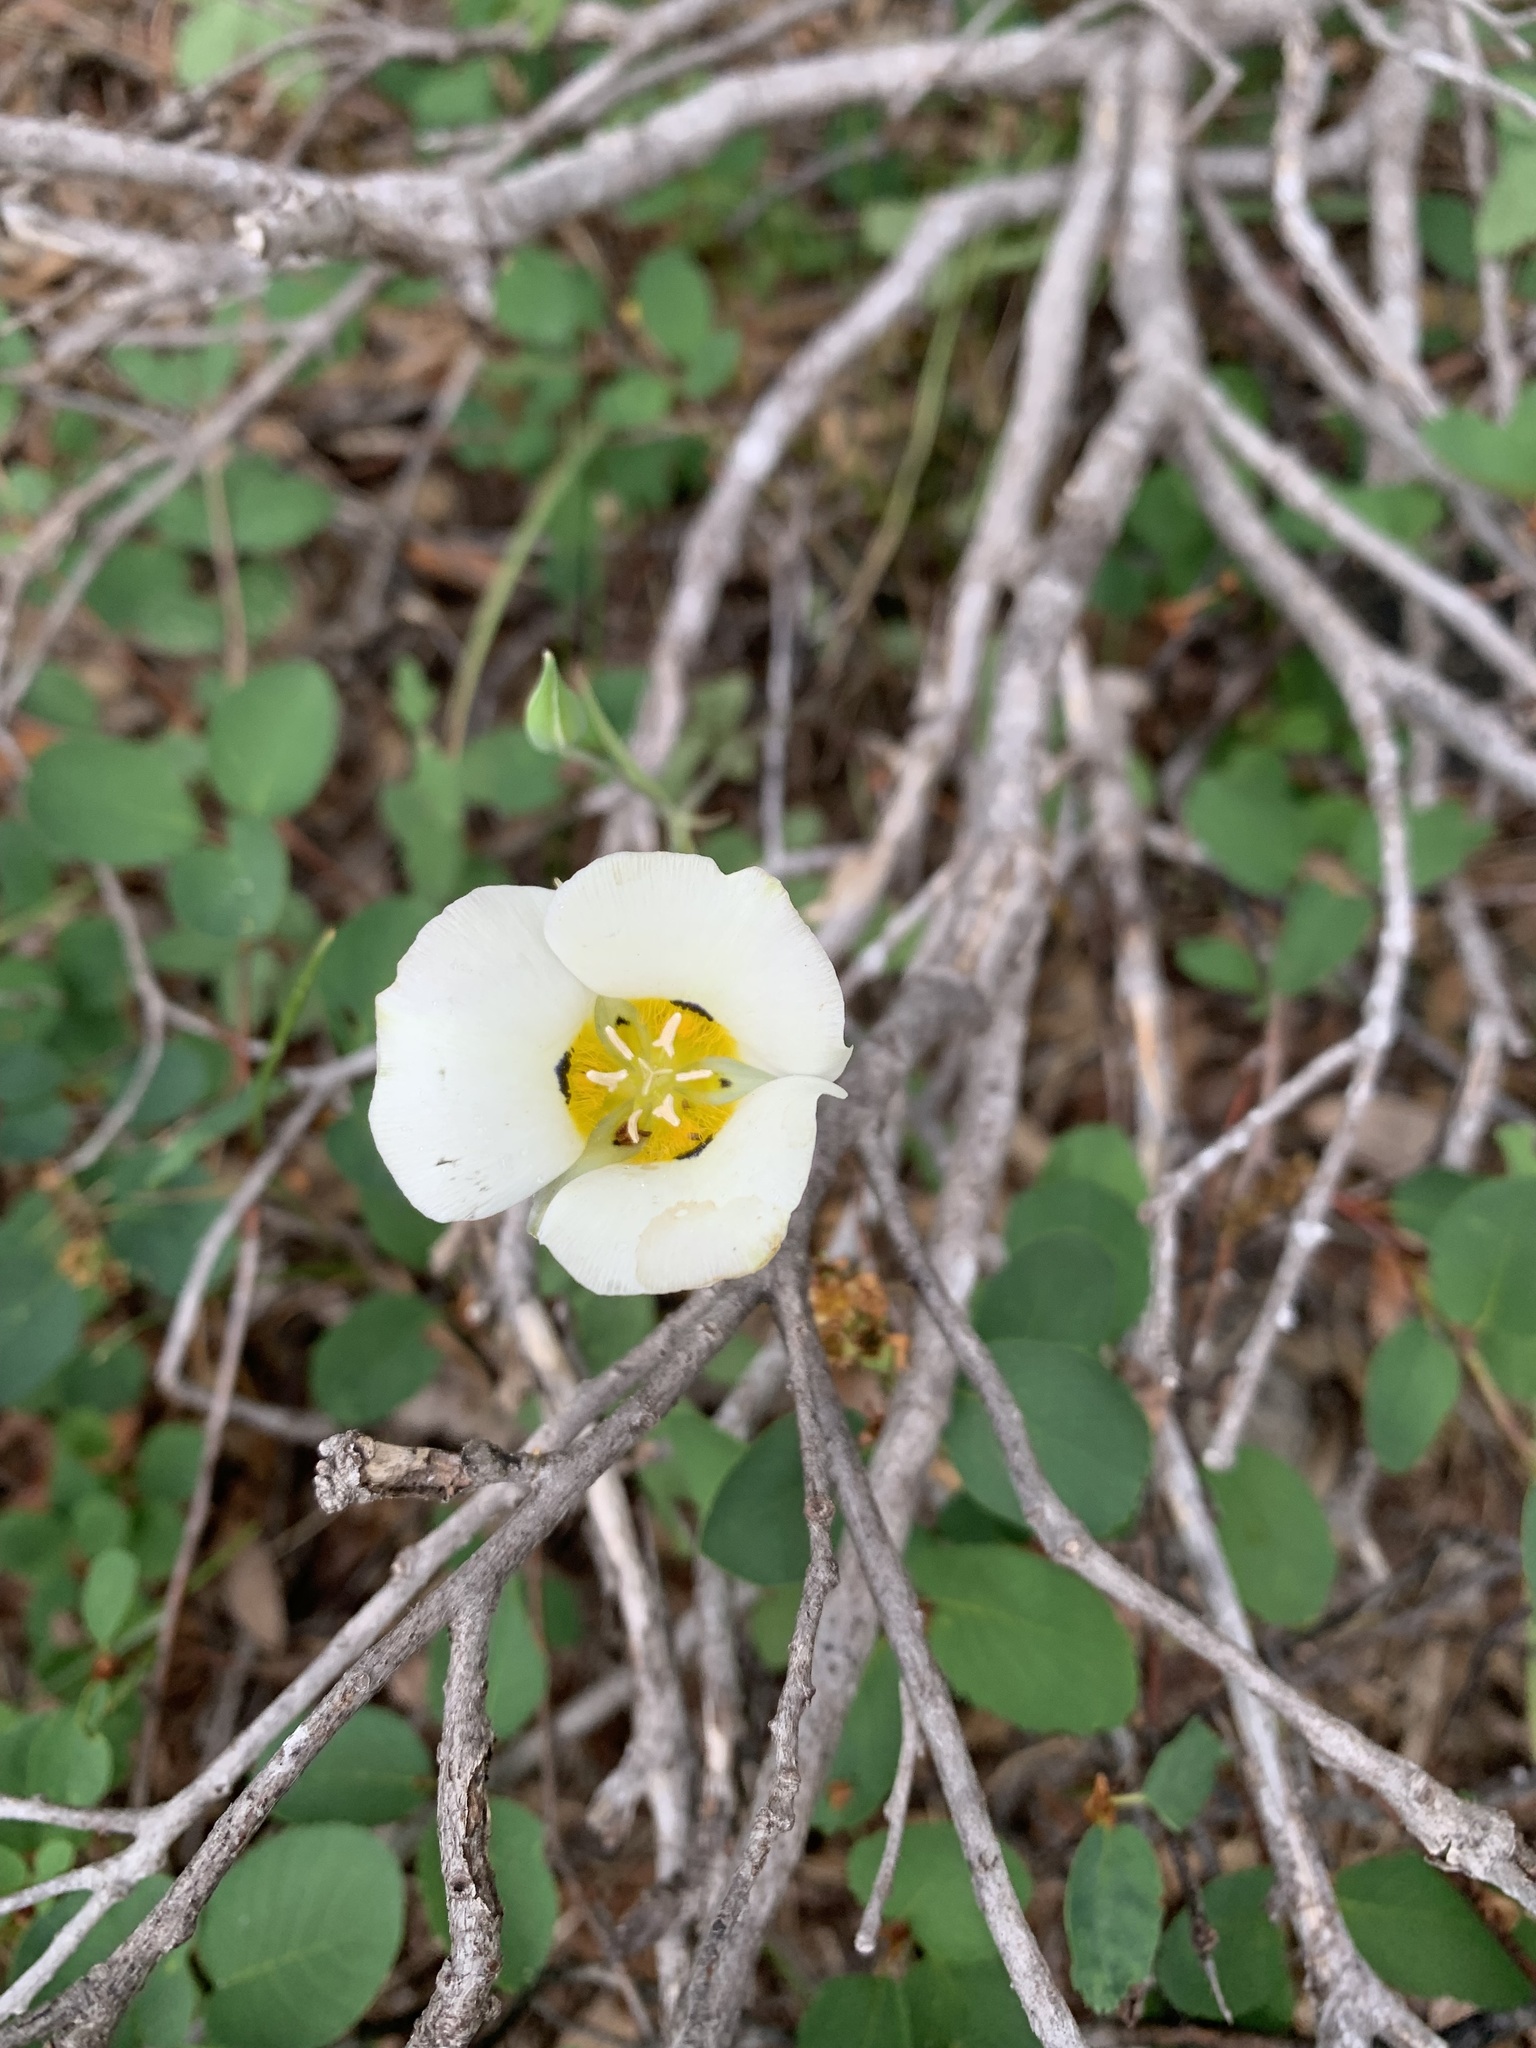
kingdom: Plantae
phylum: Tracheophyta
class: Liliopsida
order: Liliales
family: Liliaceae
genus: Calochortus
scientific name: Calochortus leichtlinii
